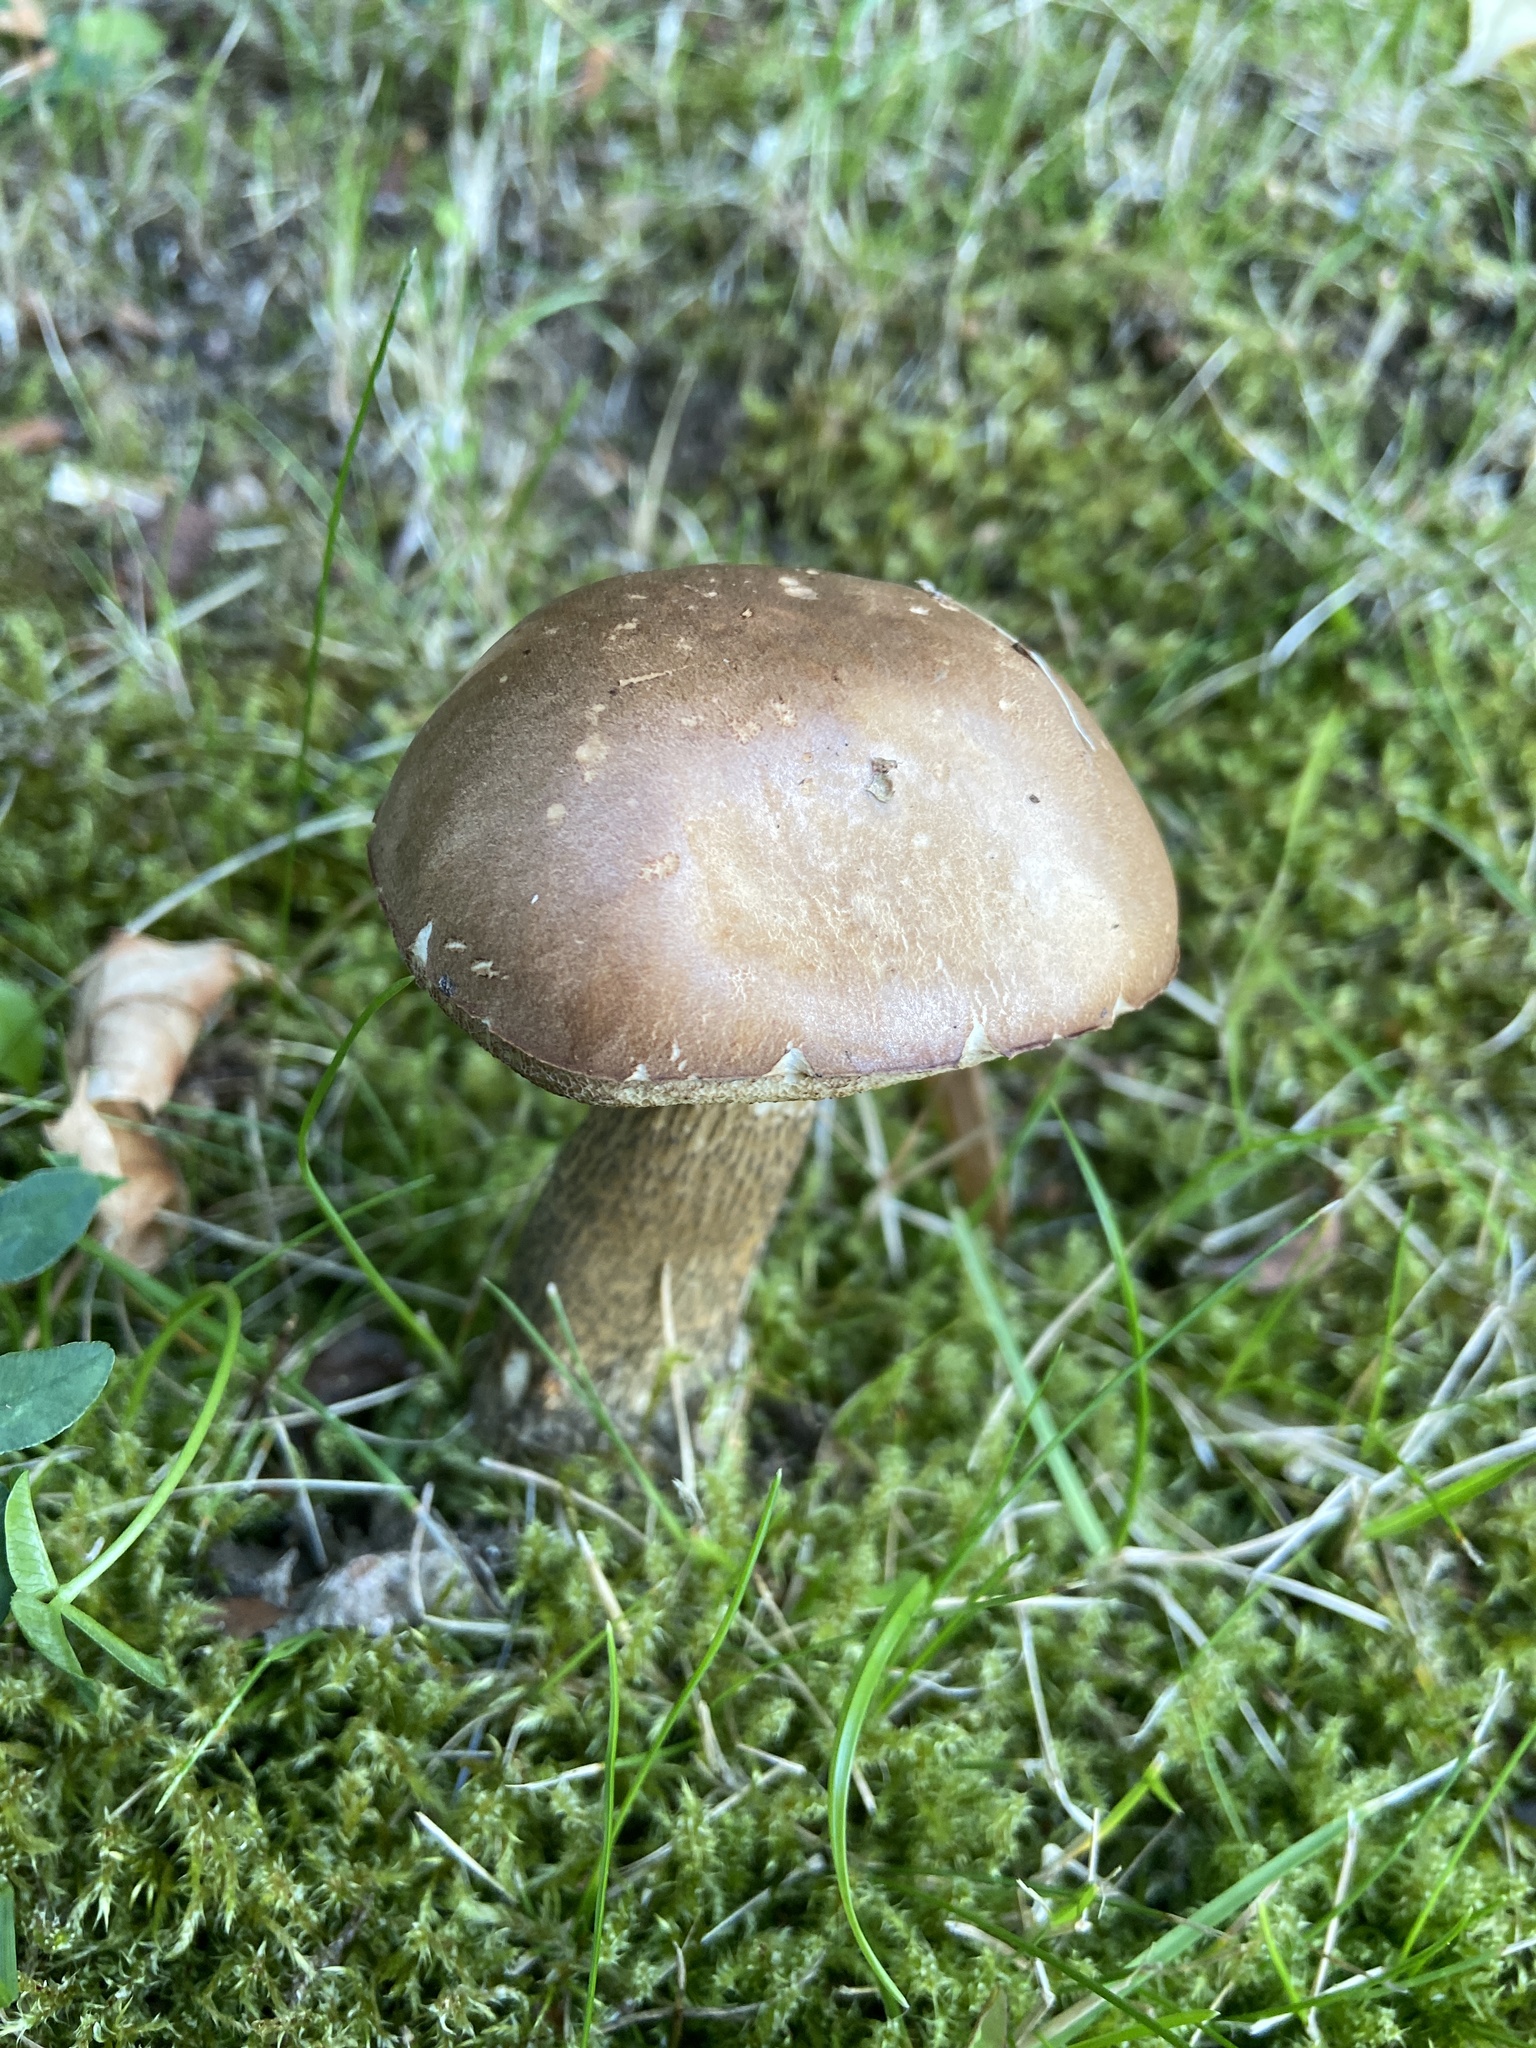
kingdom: Fungi
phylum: Basidiomycota
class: Agaricomycetes
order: Boletales
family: Boletaceae
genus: Leccinum
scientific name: Leccinum scabrum
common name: Blushing bolete
